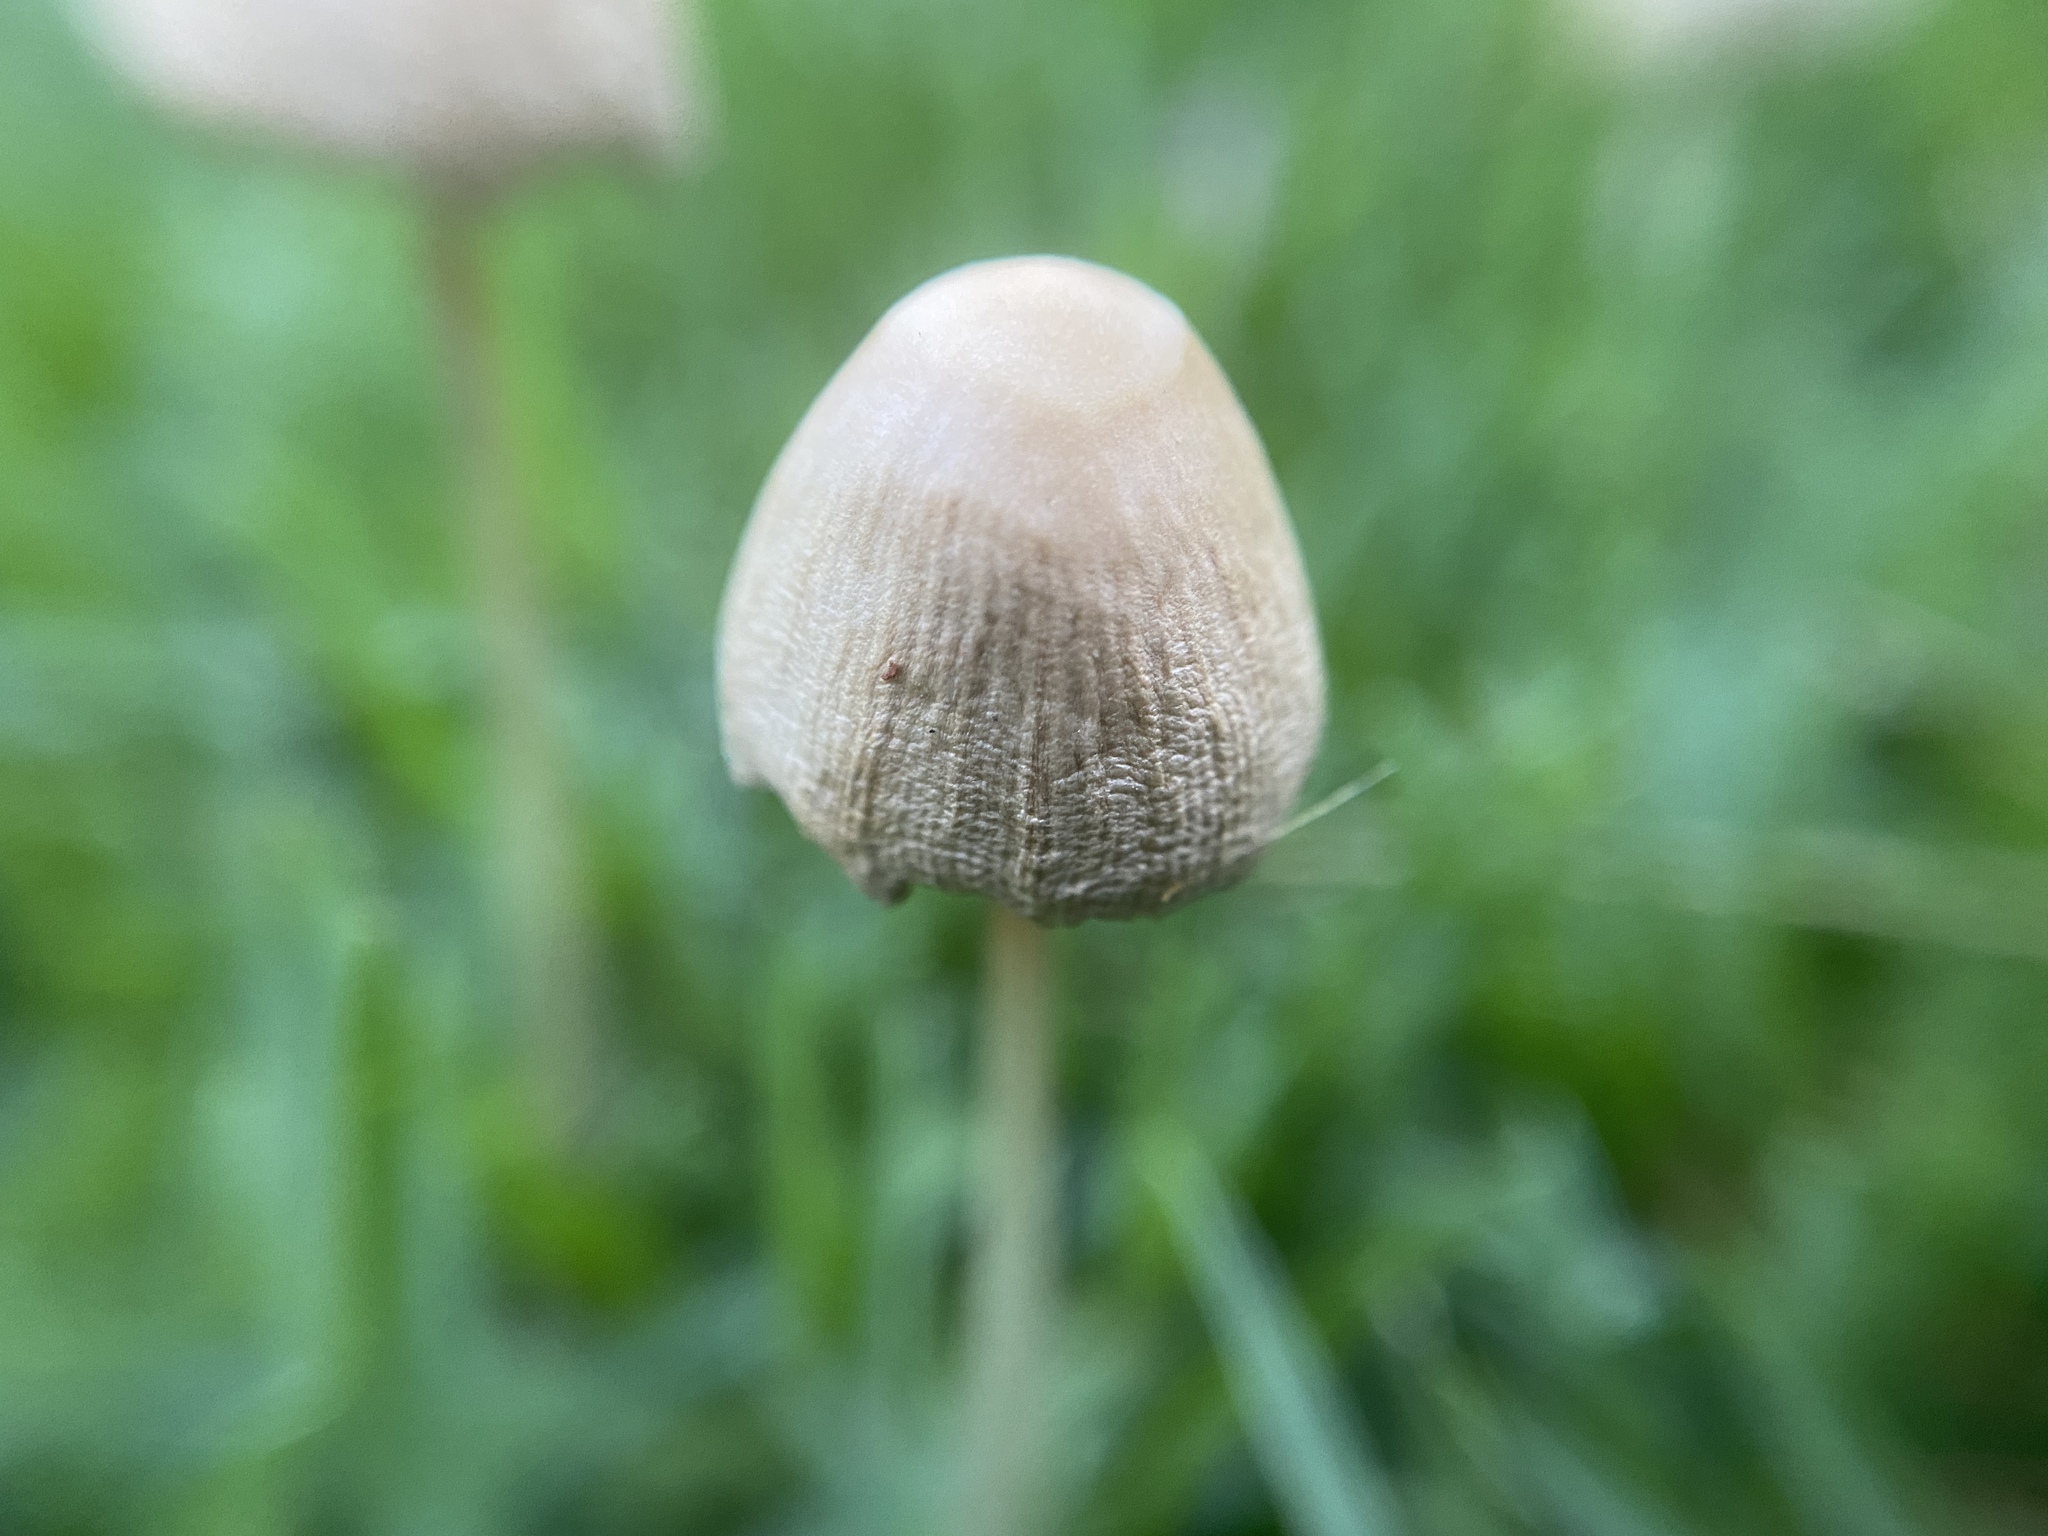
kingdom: Fungi
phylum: Basidiomycota
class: Agaricomycetes
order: Agaricales
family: Bolbitiaceae
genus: Conocybe
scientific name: Conocybe apala
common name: Milky conecap
